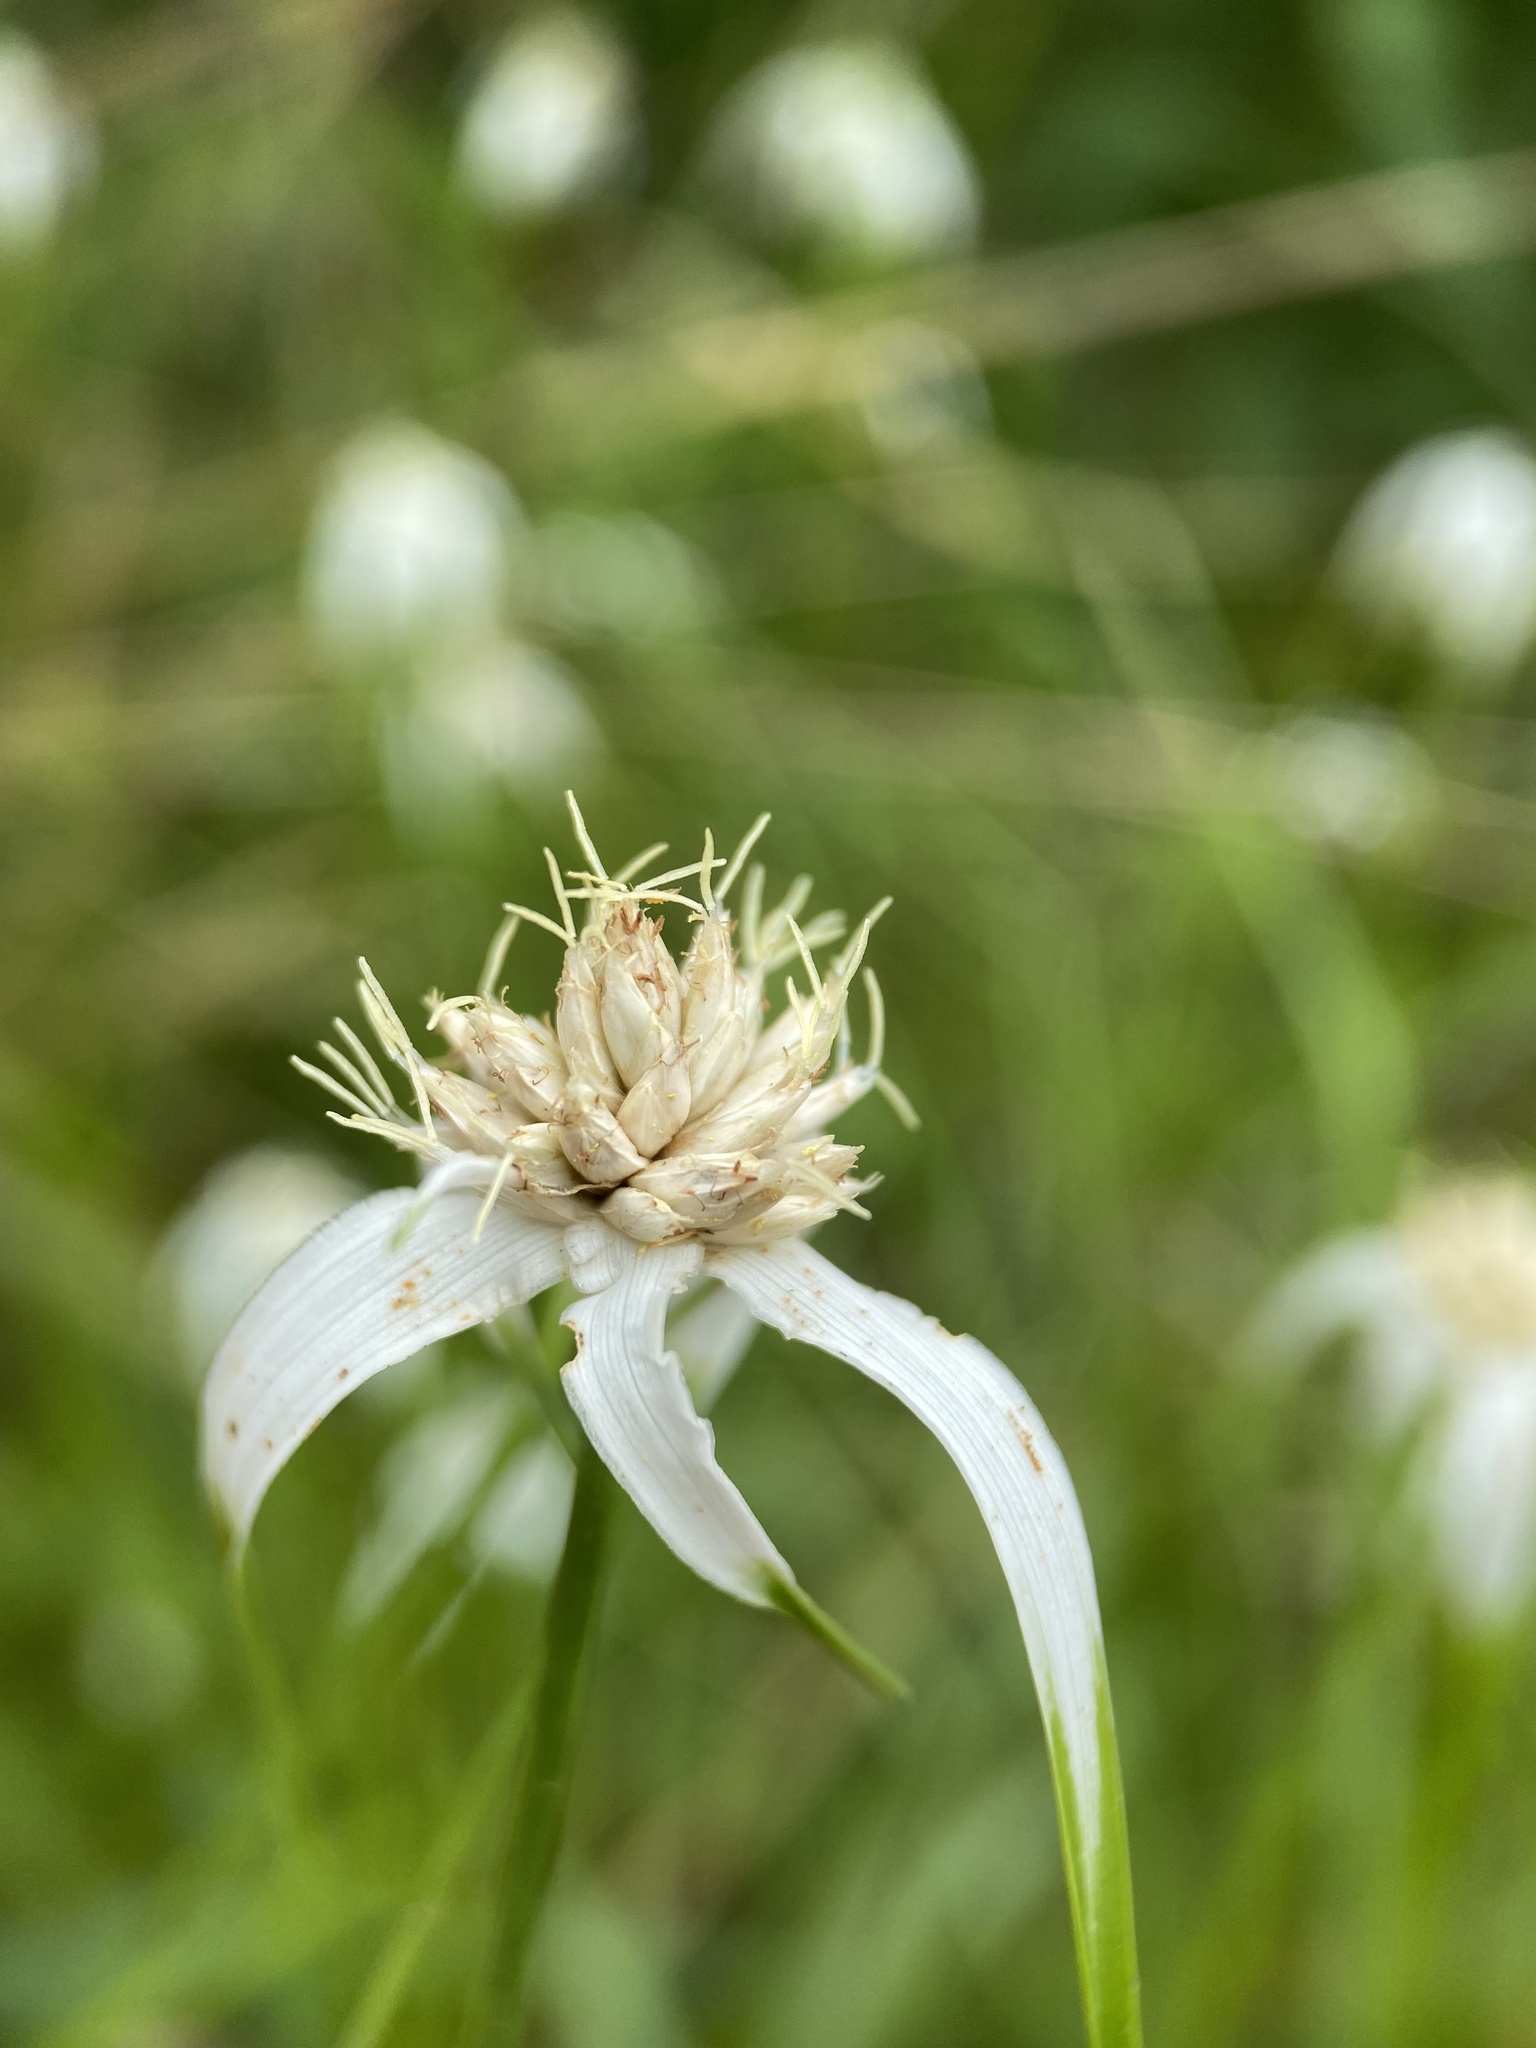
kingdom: Plantae
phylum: Tracheophyta
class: Liliopsida
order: Poales
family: Cyperaceae
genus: Rhynchospora
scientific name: Rhynchospora colorata
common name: Star sedge
